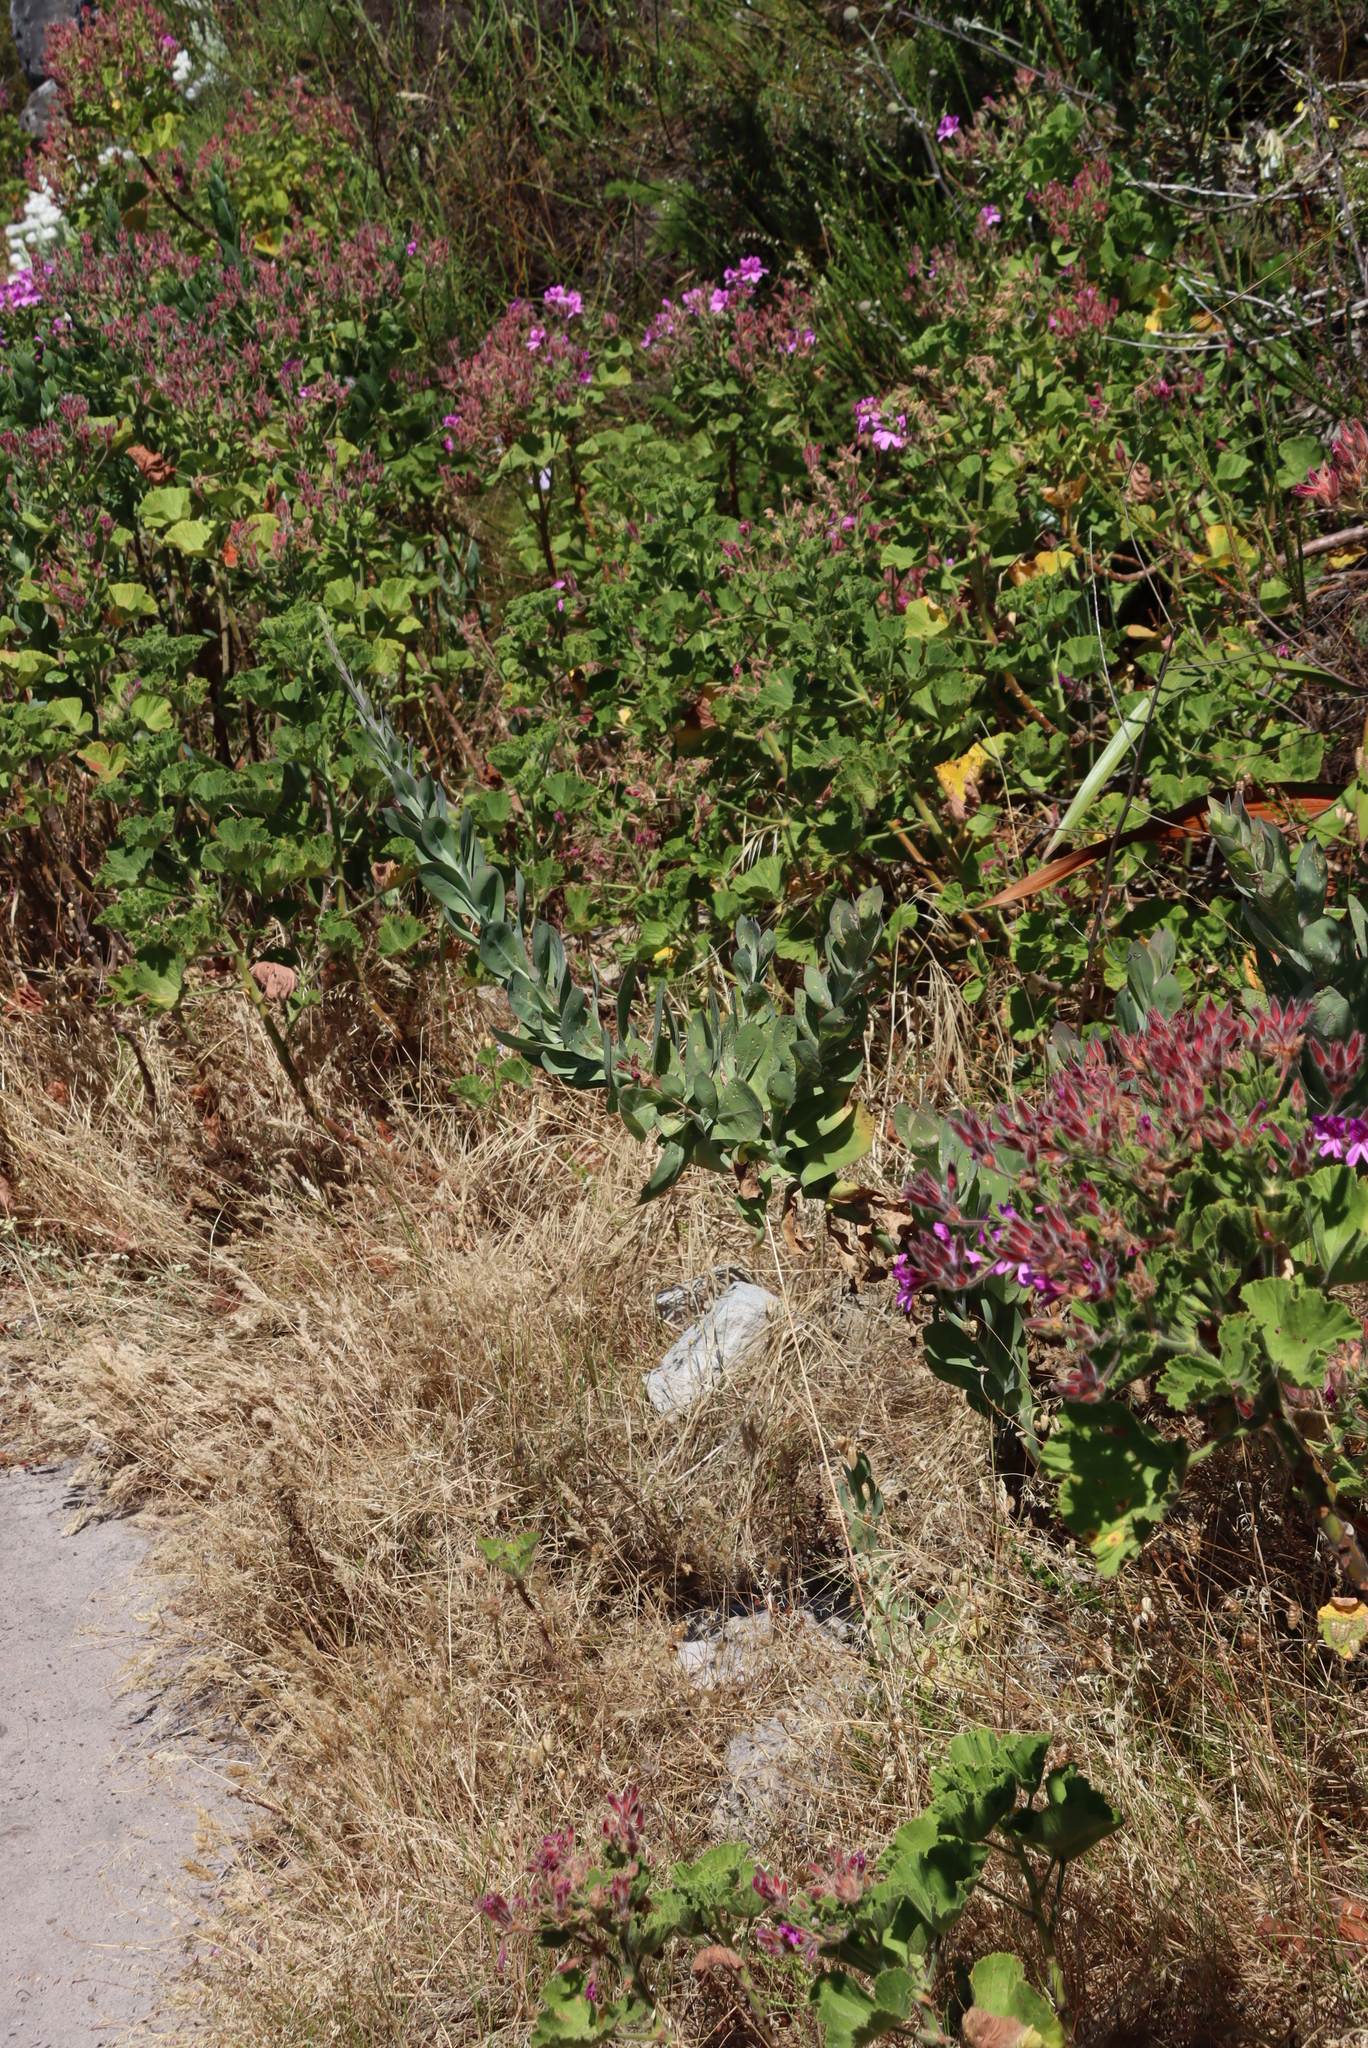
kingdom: Plantae
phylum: Tracheophyta
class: Magnoliopsida
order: Asterales
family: Asteraceae
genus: Othonna
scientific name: Othonna quinquedentata
